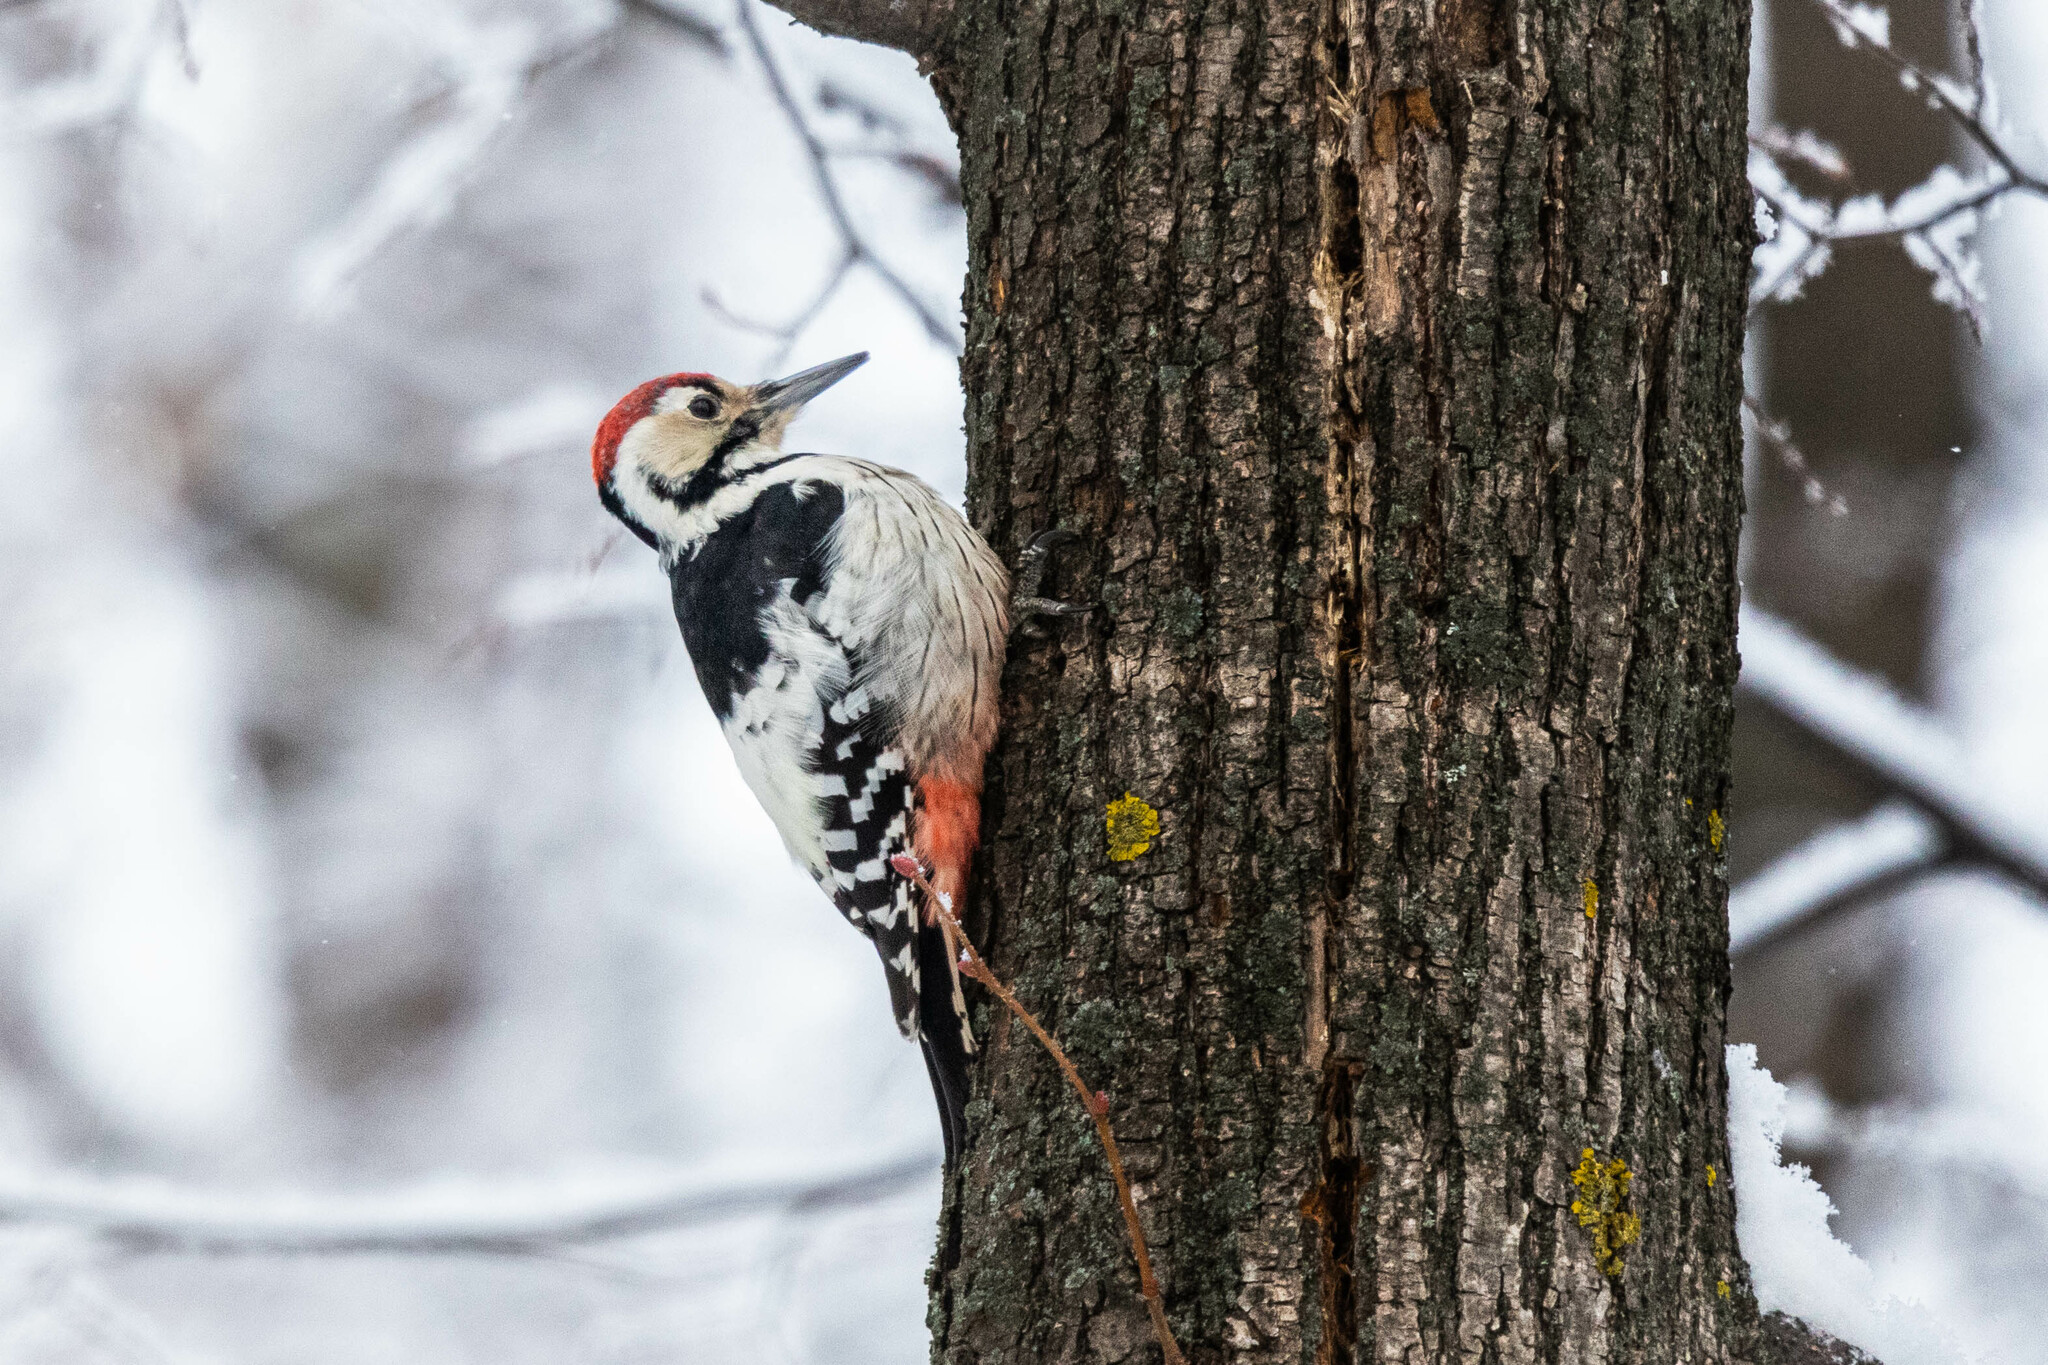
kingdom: Animalia
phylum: Chordata
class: Aves
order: Piciformes
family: Picidae
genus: Dendrocopos
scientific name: Dendrocopos leucotos
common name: White-backed woodpecker
